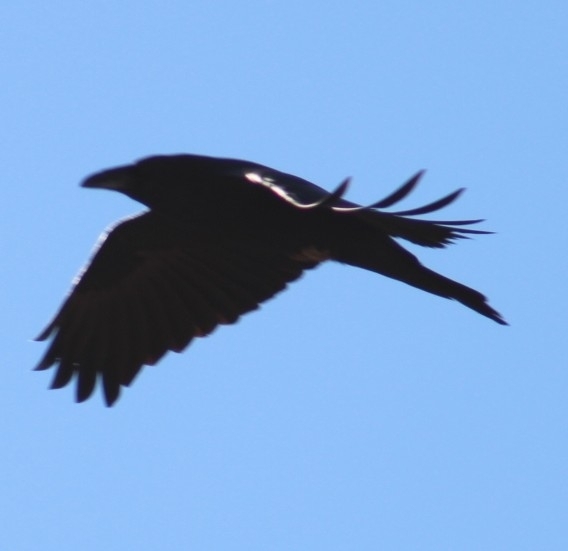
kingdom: Animalia
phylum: Chordata
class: Aves
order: Passeriformes
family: Corvidae
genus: Corvus
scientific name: Corvus corax
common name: Common raven
